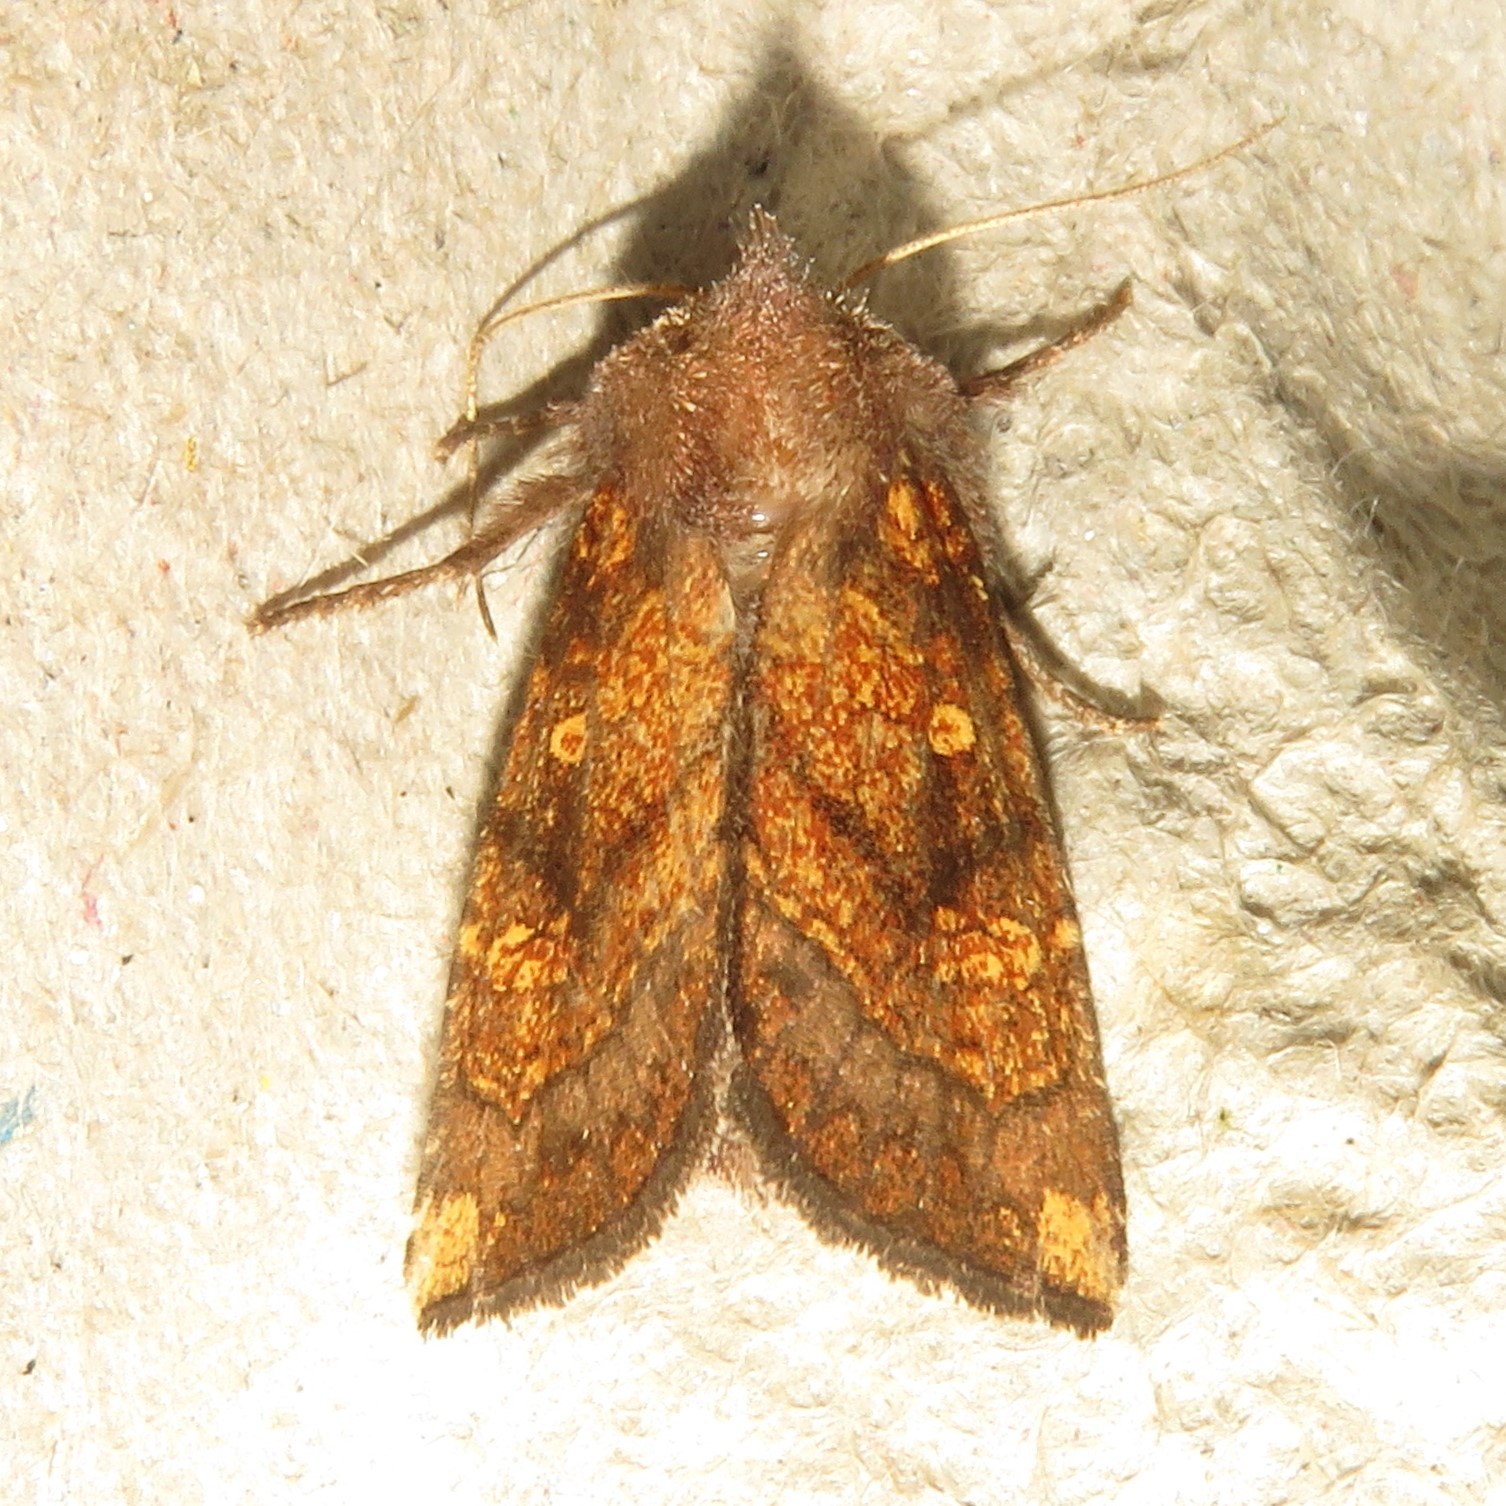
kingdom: Animalia
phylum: Arthropoda
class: Insecta
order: Lepidoptera
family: Noctuidae
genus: Papaipema
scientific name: Papaipema impecuniosa
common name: Aster borer moth
